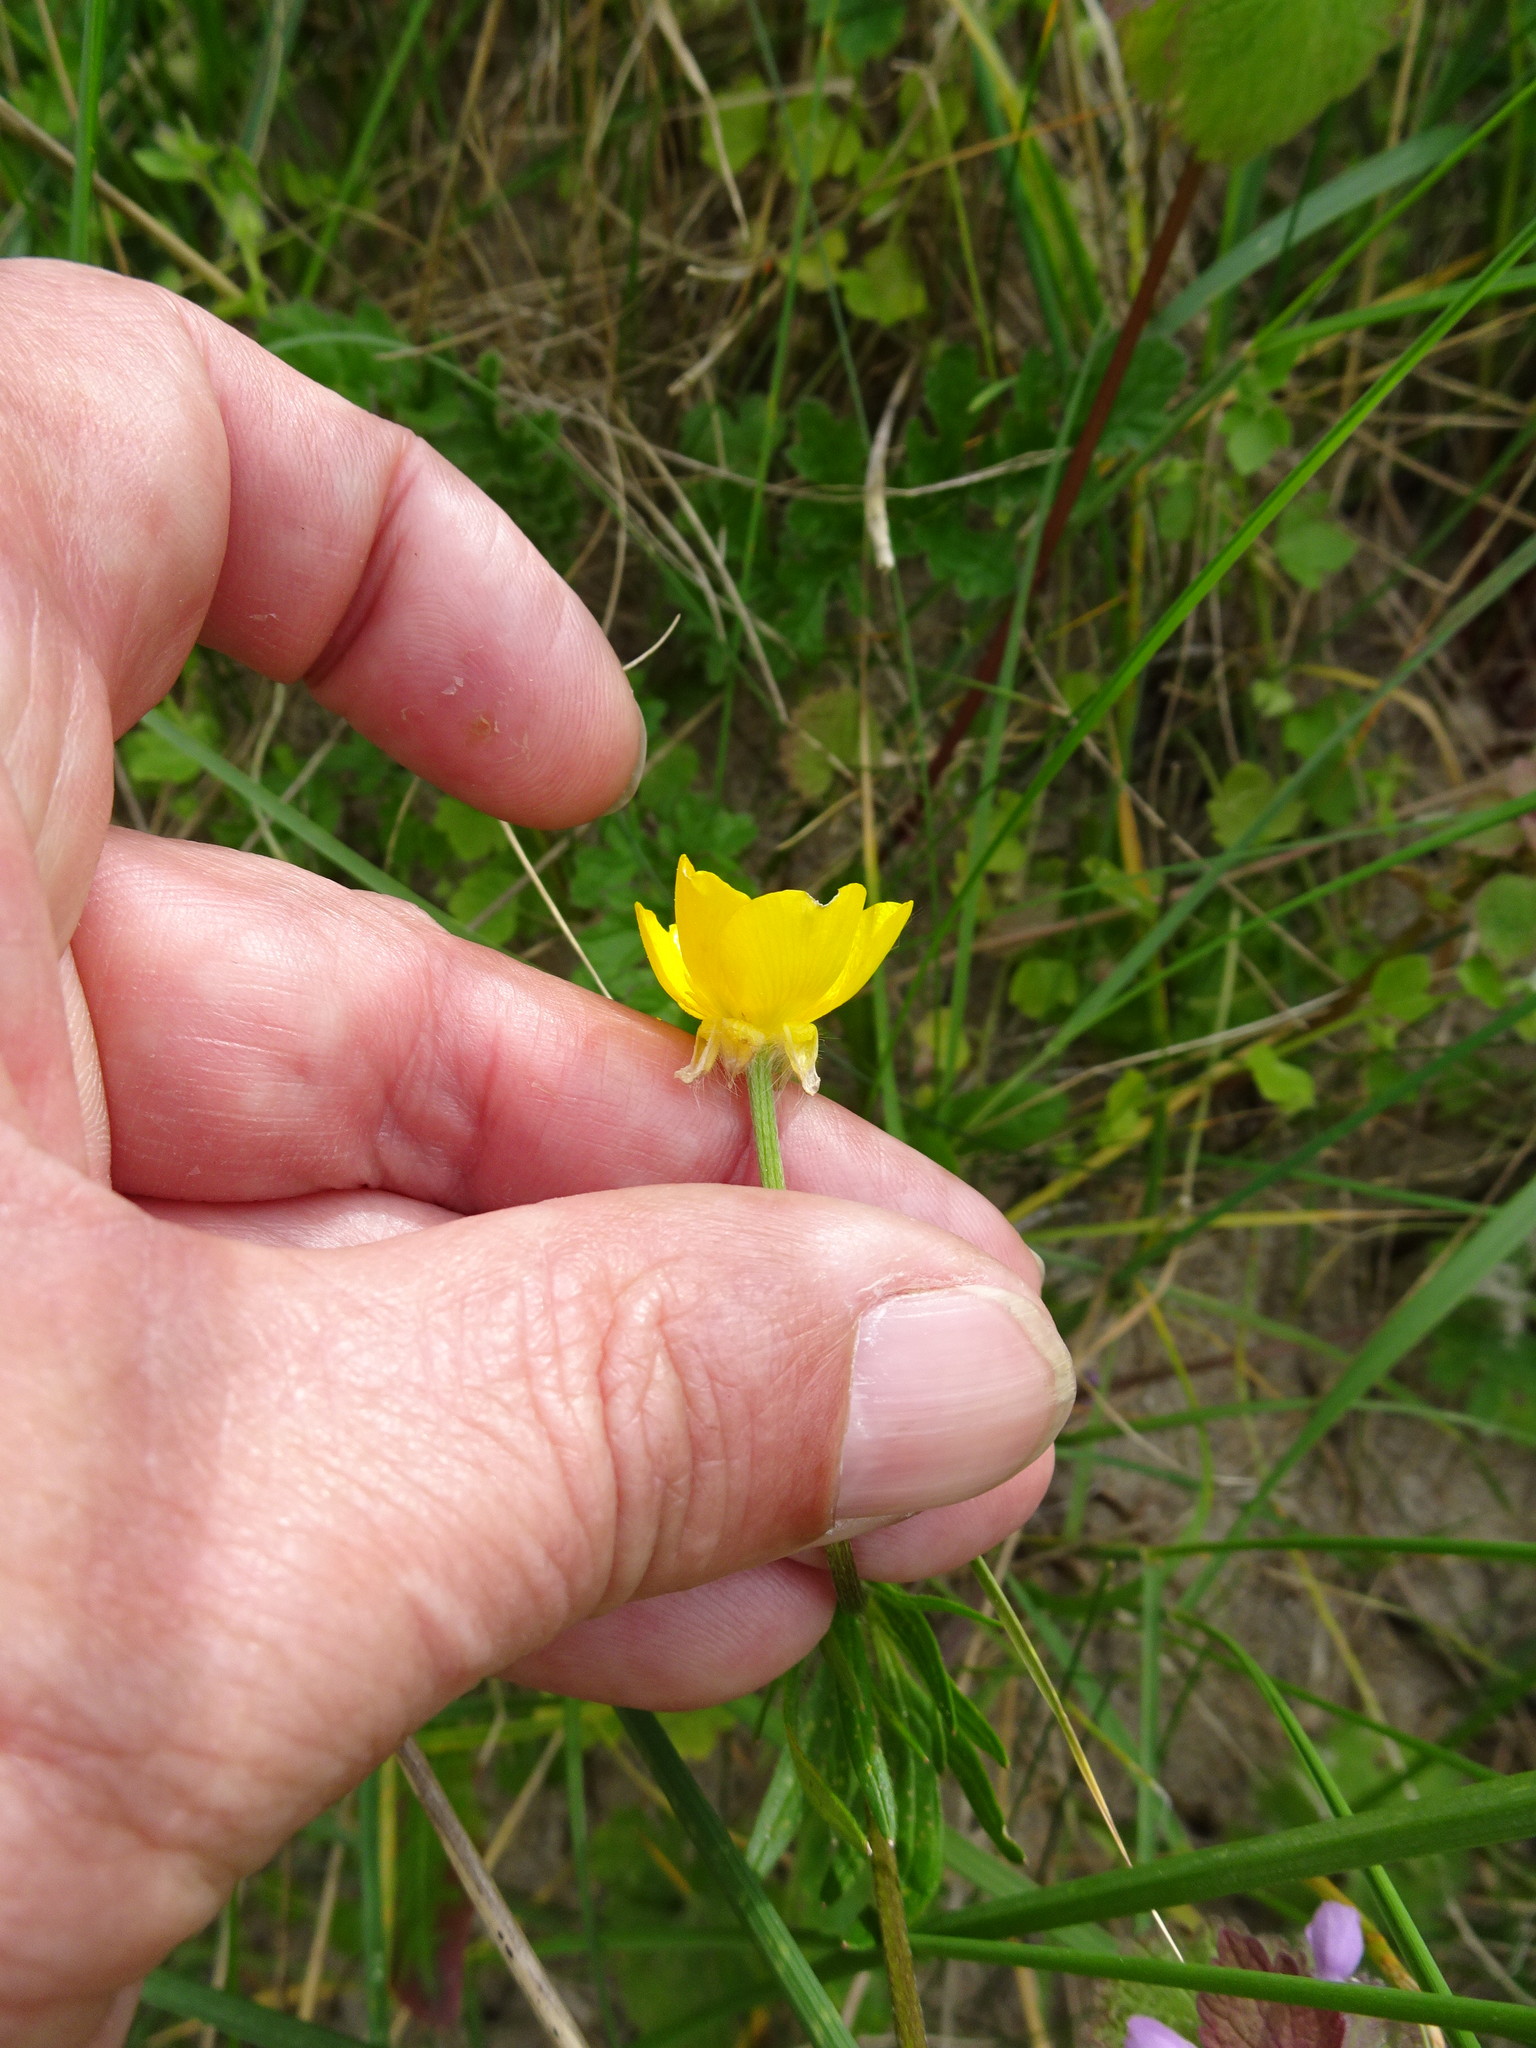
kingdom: Plantae
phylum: Tracheophyta
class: Magnoliopsida
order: Ranunculales
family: Ranunculaceae
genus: Ranunculus
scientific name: Ranunculus bulbosus
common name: Bulbous buttercup
